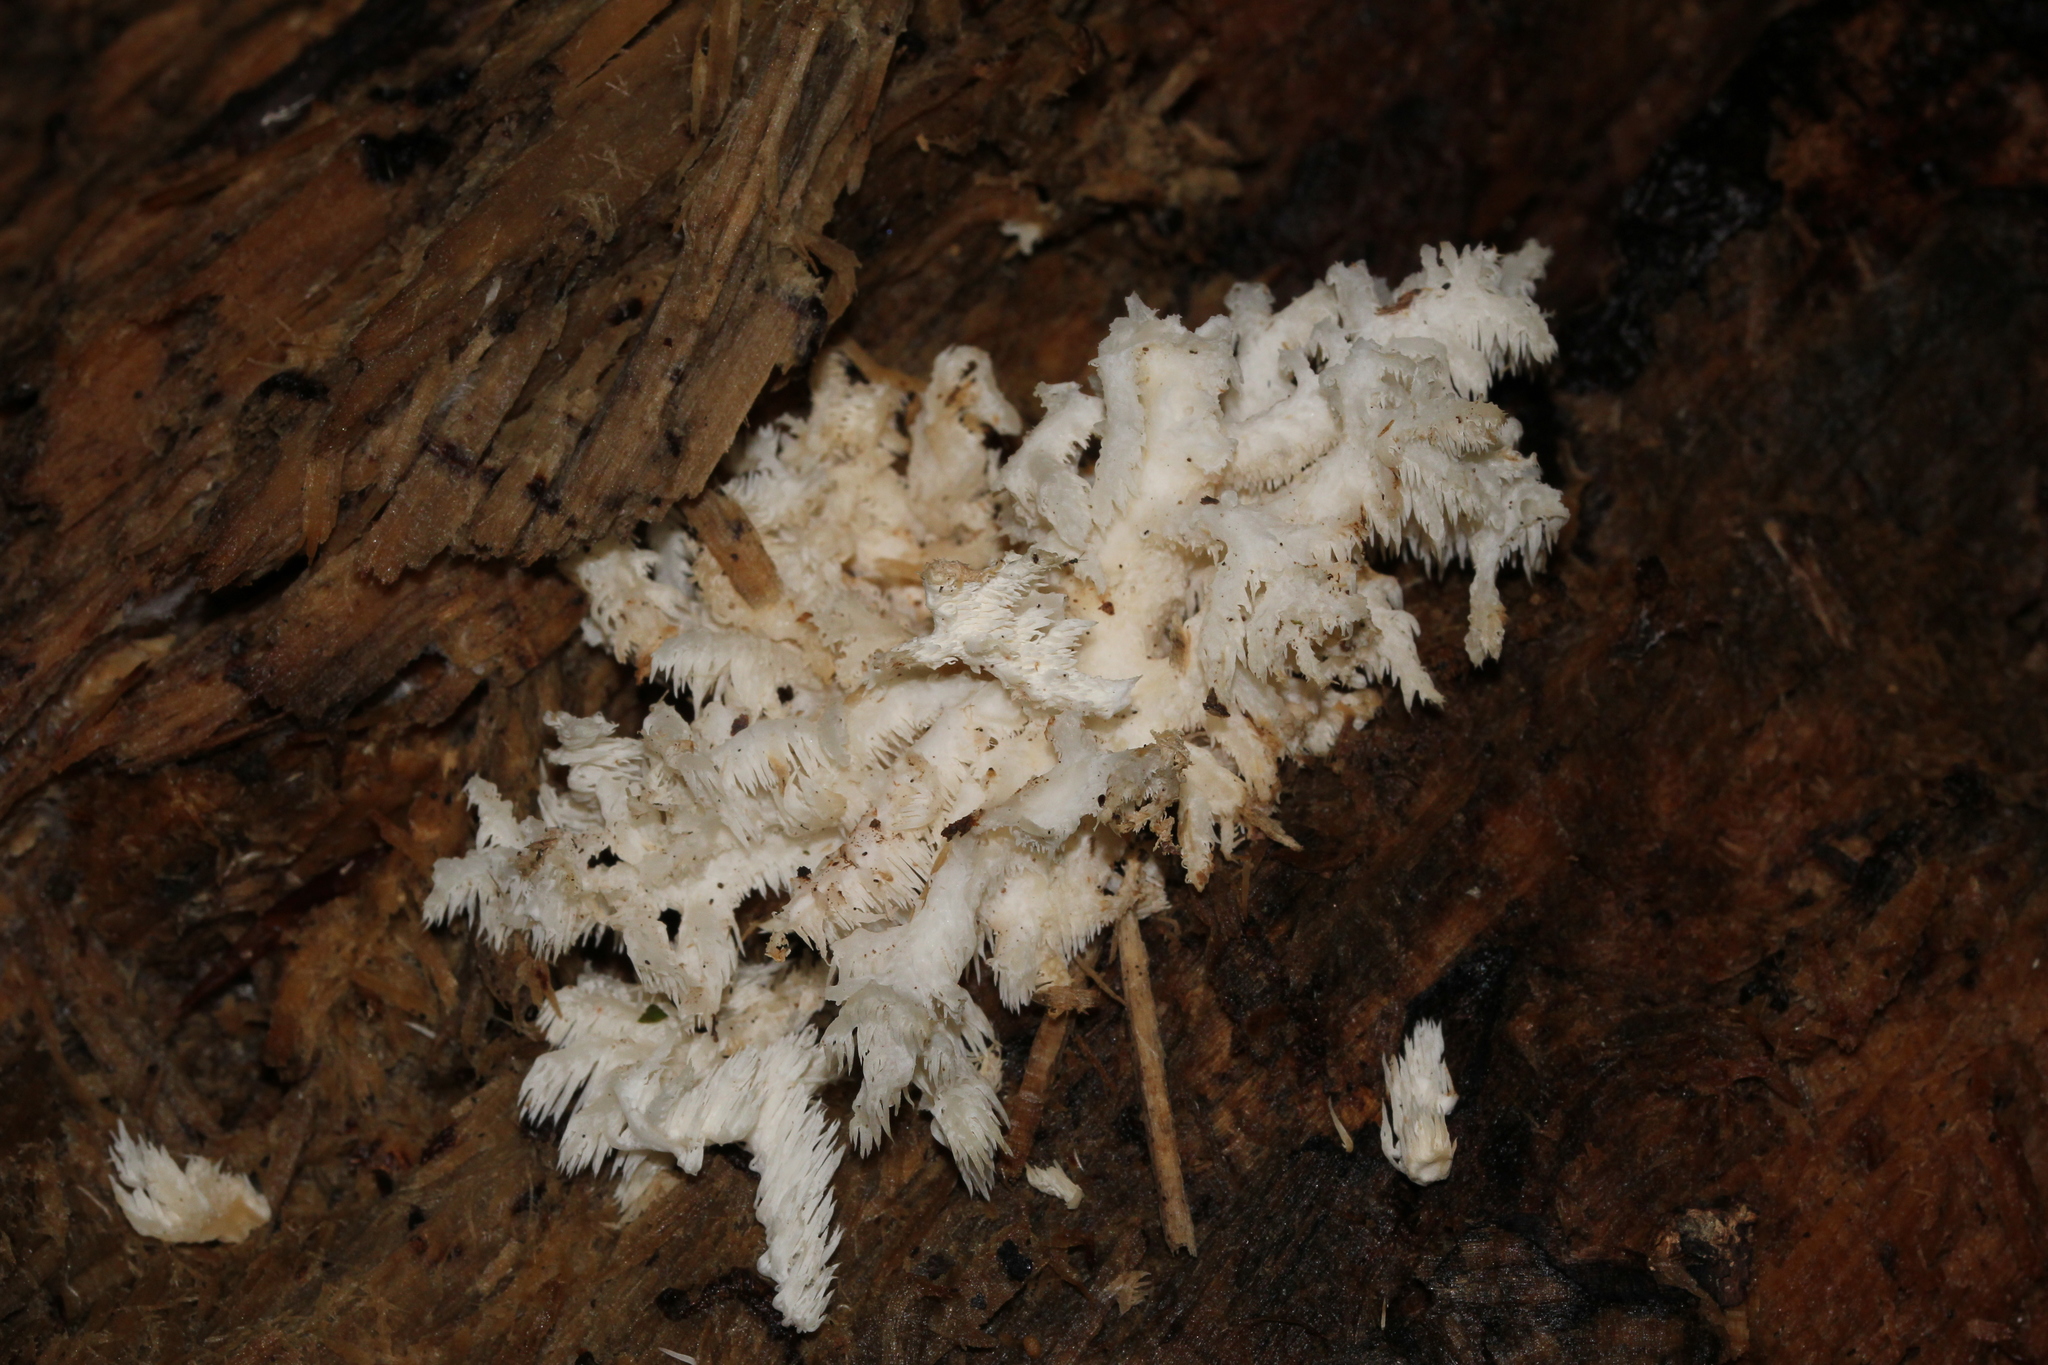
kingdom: Fungi
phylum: Basidiomycota
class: Agaricomycetes
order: Russulales
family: Hericiaceae
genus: Hericium
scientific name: Hericium coralloides
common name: Coral tooth
